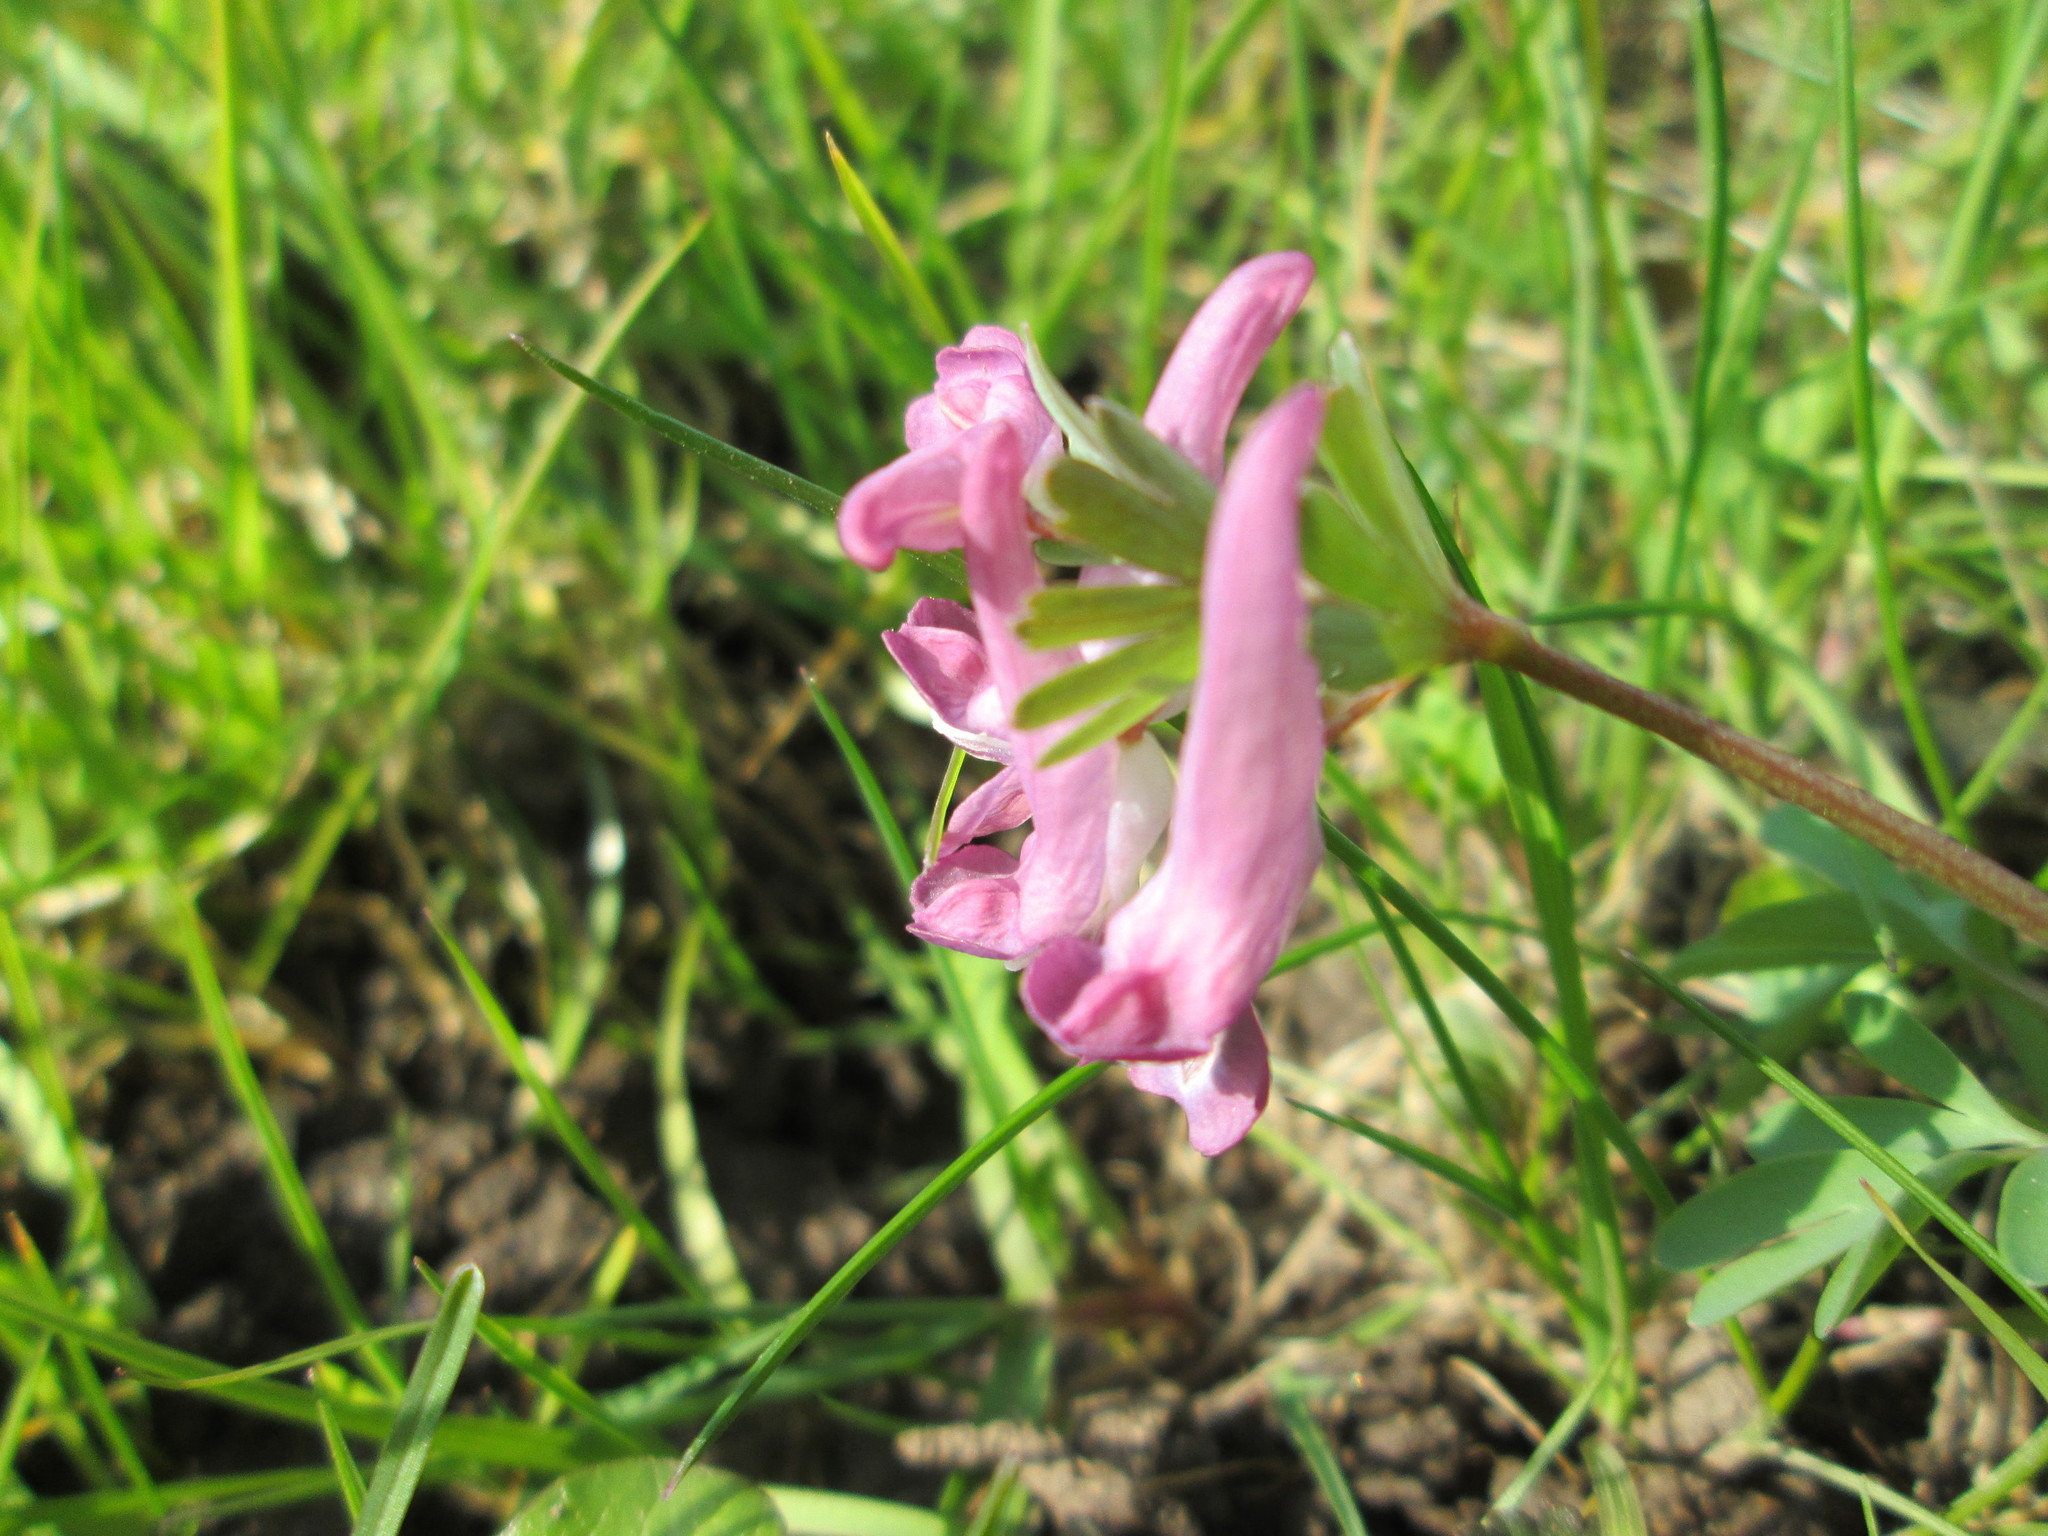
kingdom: Plantae
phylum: Tracheophyta
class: Magnoliopsida
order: Ranunculales
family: Papaveraceae
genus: Corydalis
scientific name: Corydalis solida
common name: Bird-in-a-bush
